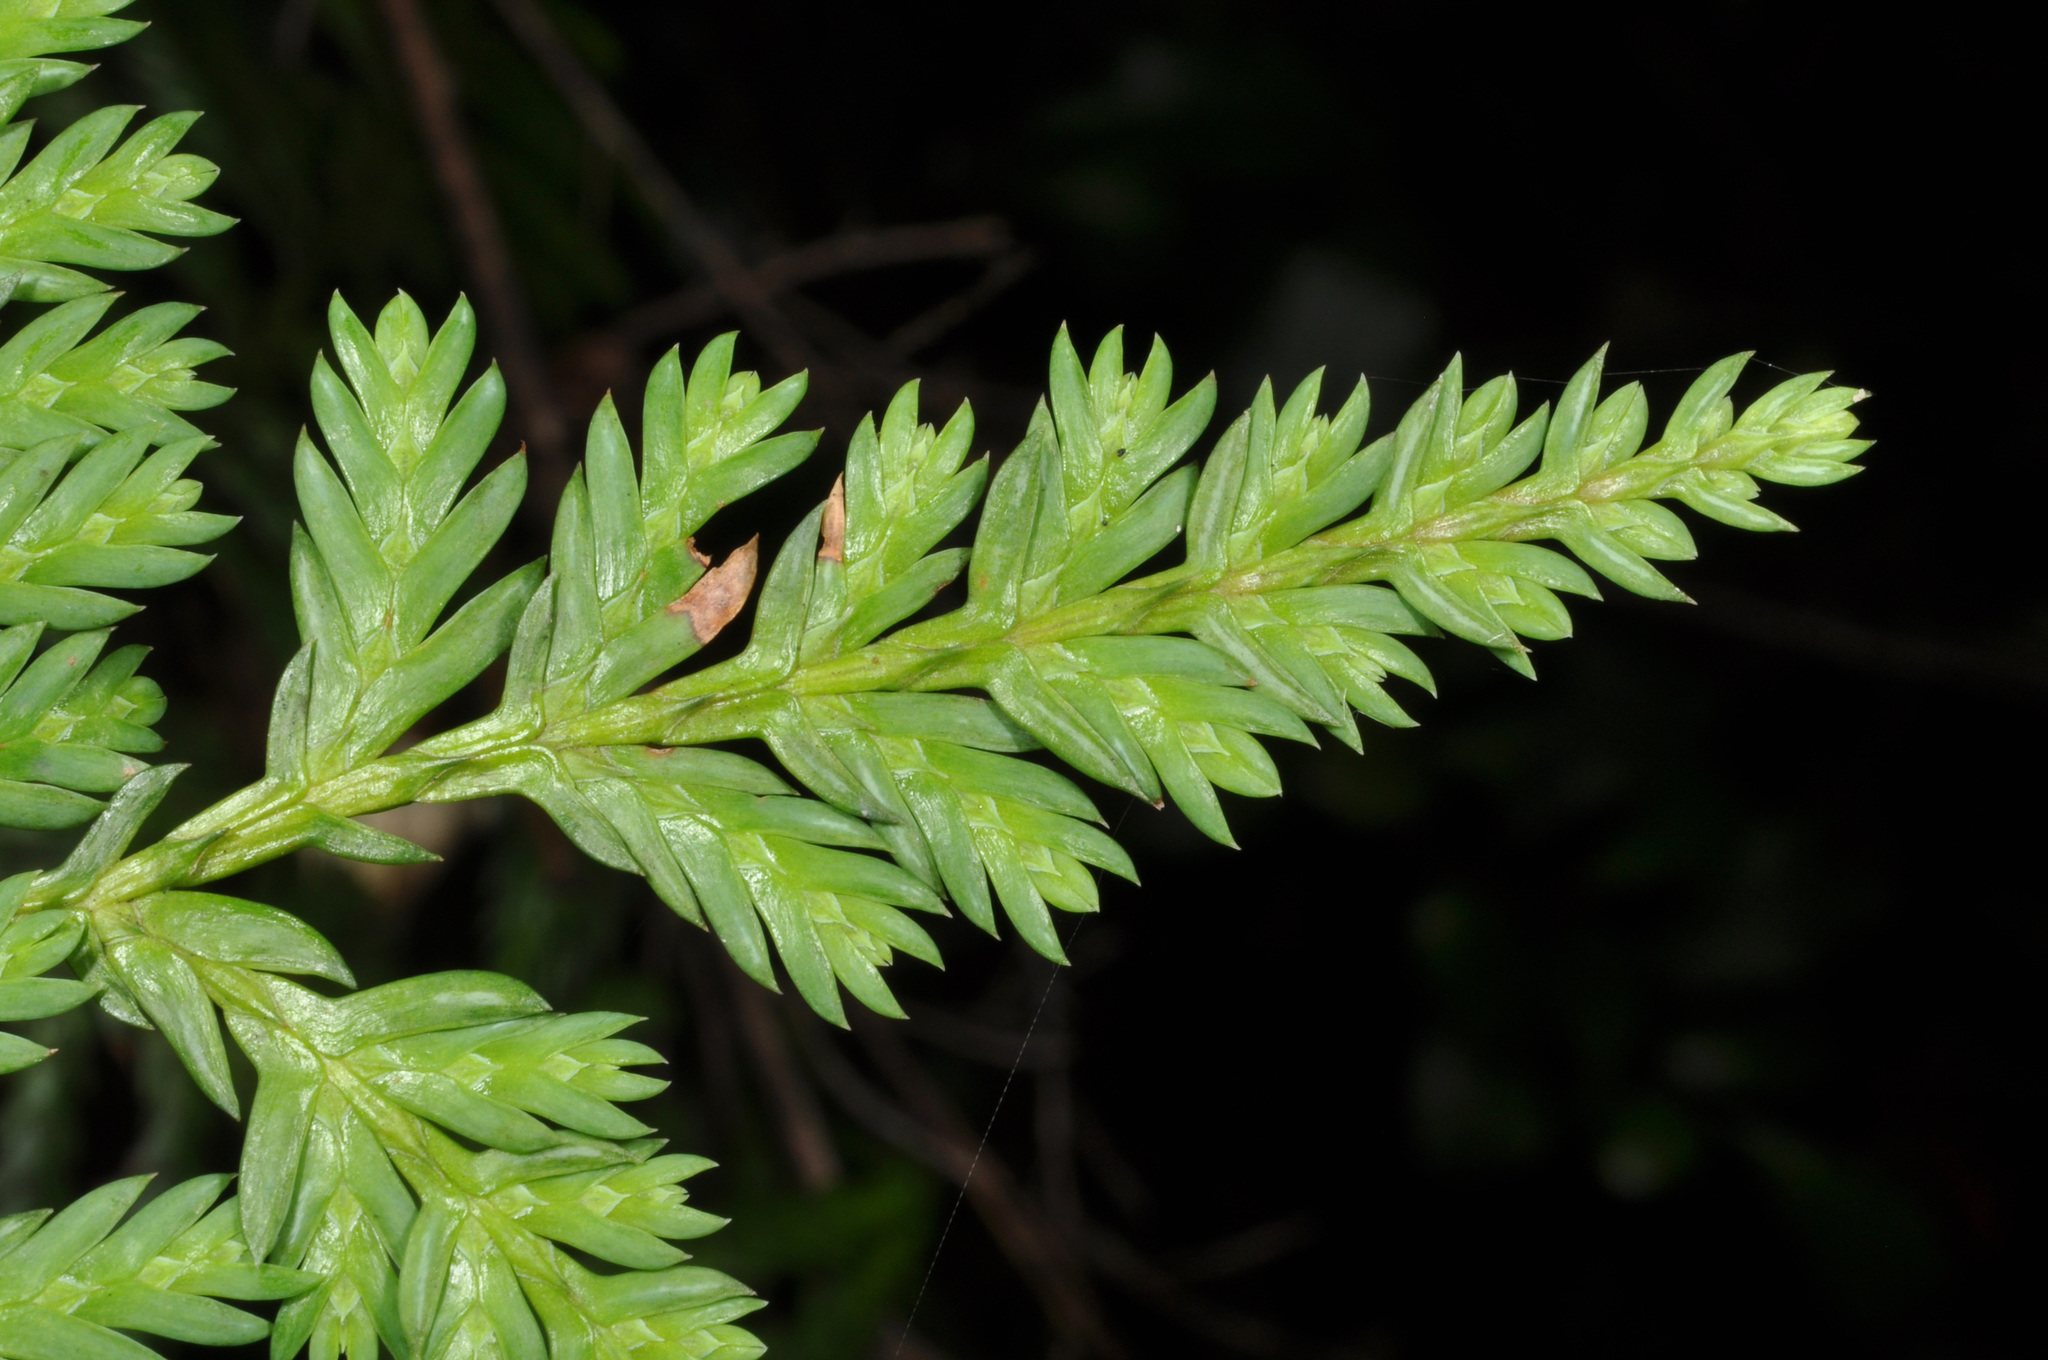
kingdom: Plantae
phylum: Tracheophyta
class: Pinopsida
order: Pinales
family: Cupressaceae
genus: Libocedrus
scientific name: Libocedrus plumosa
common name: New zealand cedar
